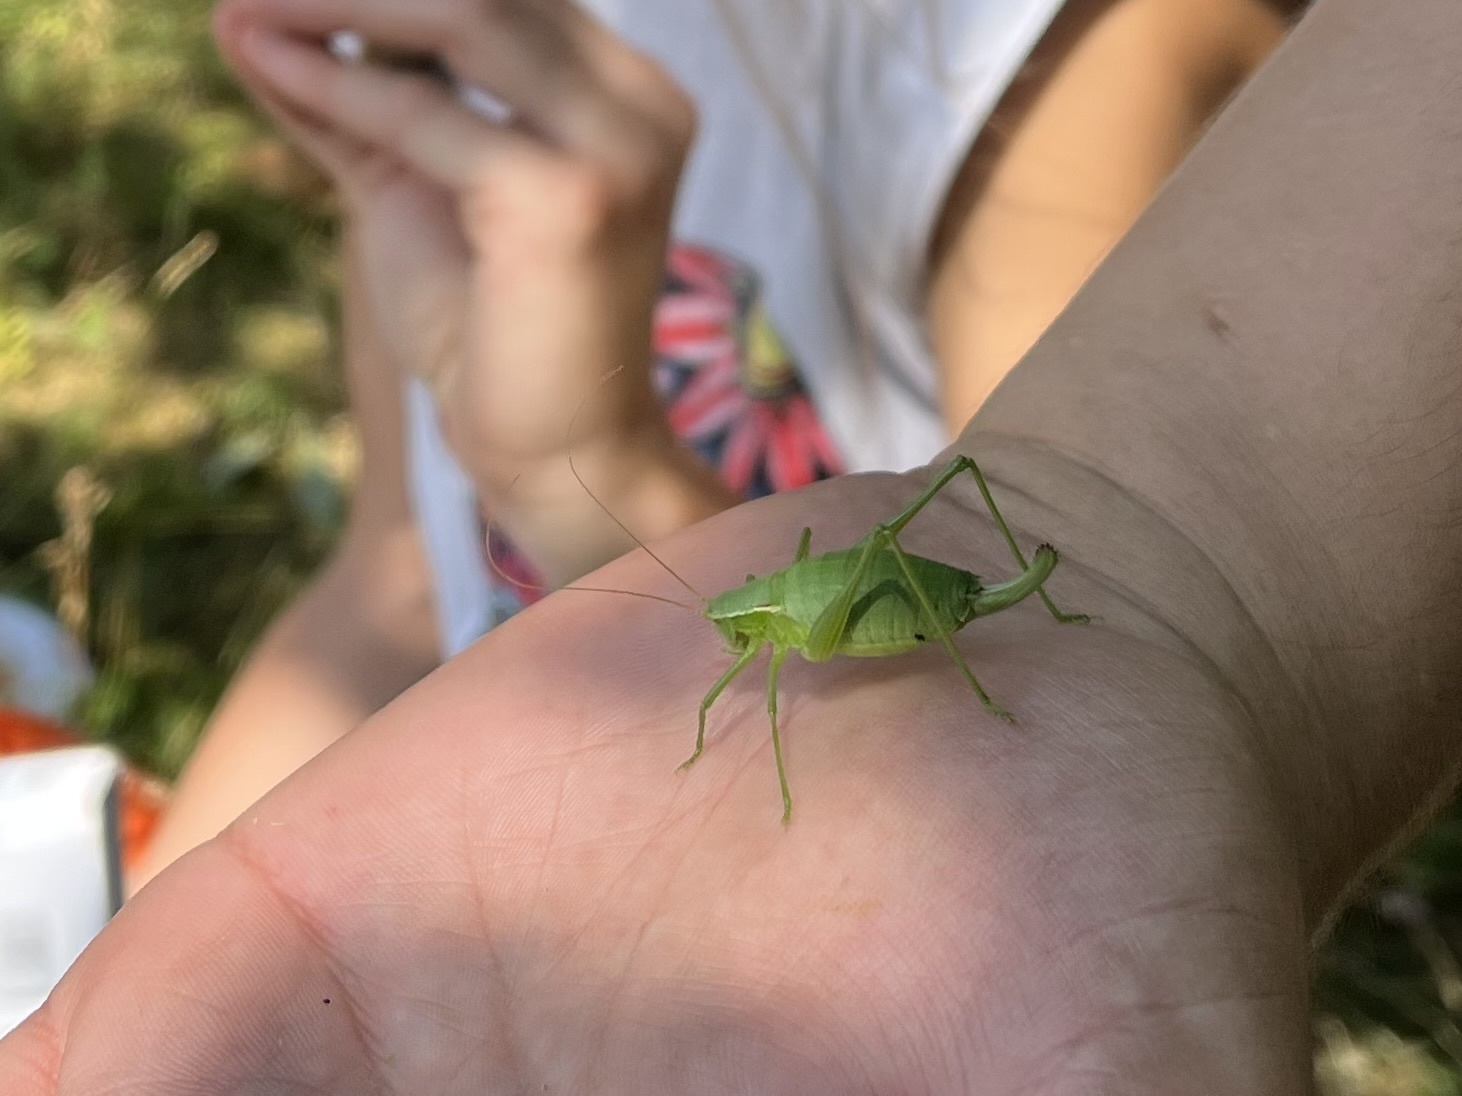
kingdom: Animalia
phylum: Arthropoda
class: Insecta
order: Orthoptera
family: Tettigoniidae
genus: Isophya
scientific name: Isophya kraussii
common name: Krauss's plump bush-cricket
